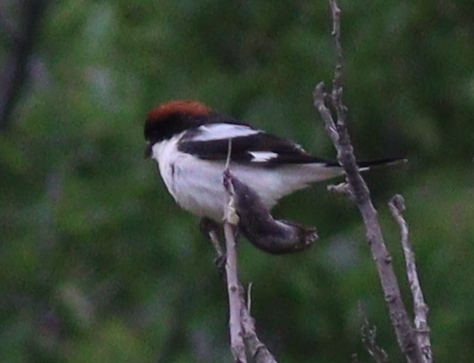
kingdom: Animalia
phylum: Chordata
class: Aves
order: Passeriformes
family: Laniidae
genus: Lanius
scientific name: Lanius senator
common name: Woodchat shrike
